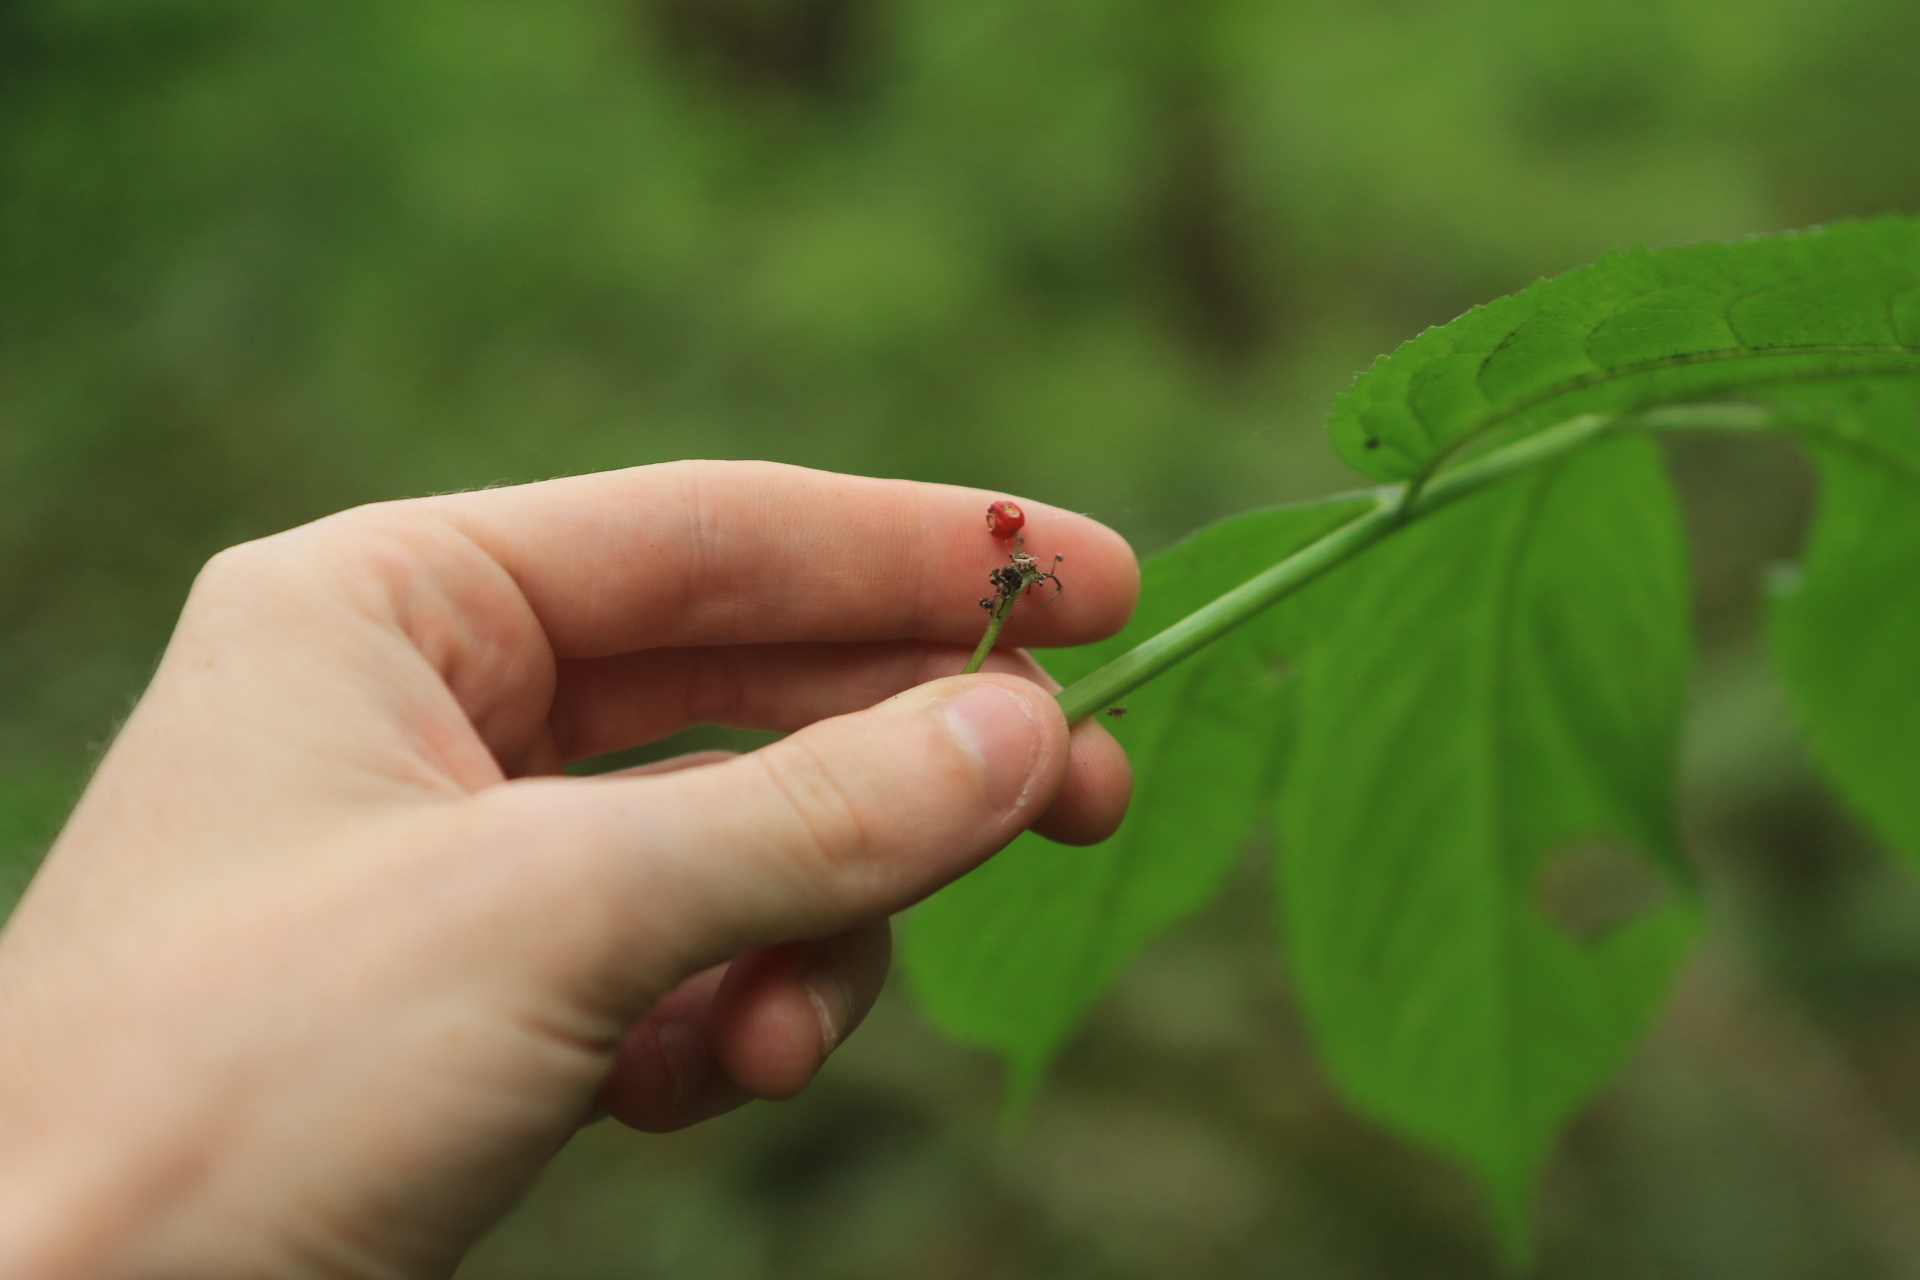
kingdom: Plantae
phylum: Tracheophyta
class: Magnoliopsida
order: Lamiales
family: Oleaceae
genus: Fraxinus
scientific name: Fraxinus latifolia
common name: Oregon ash
